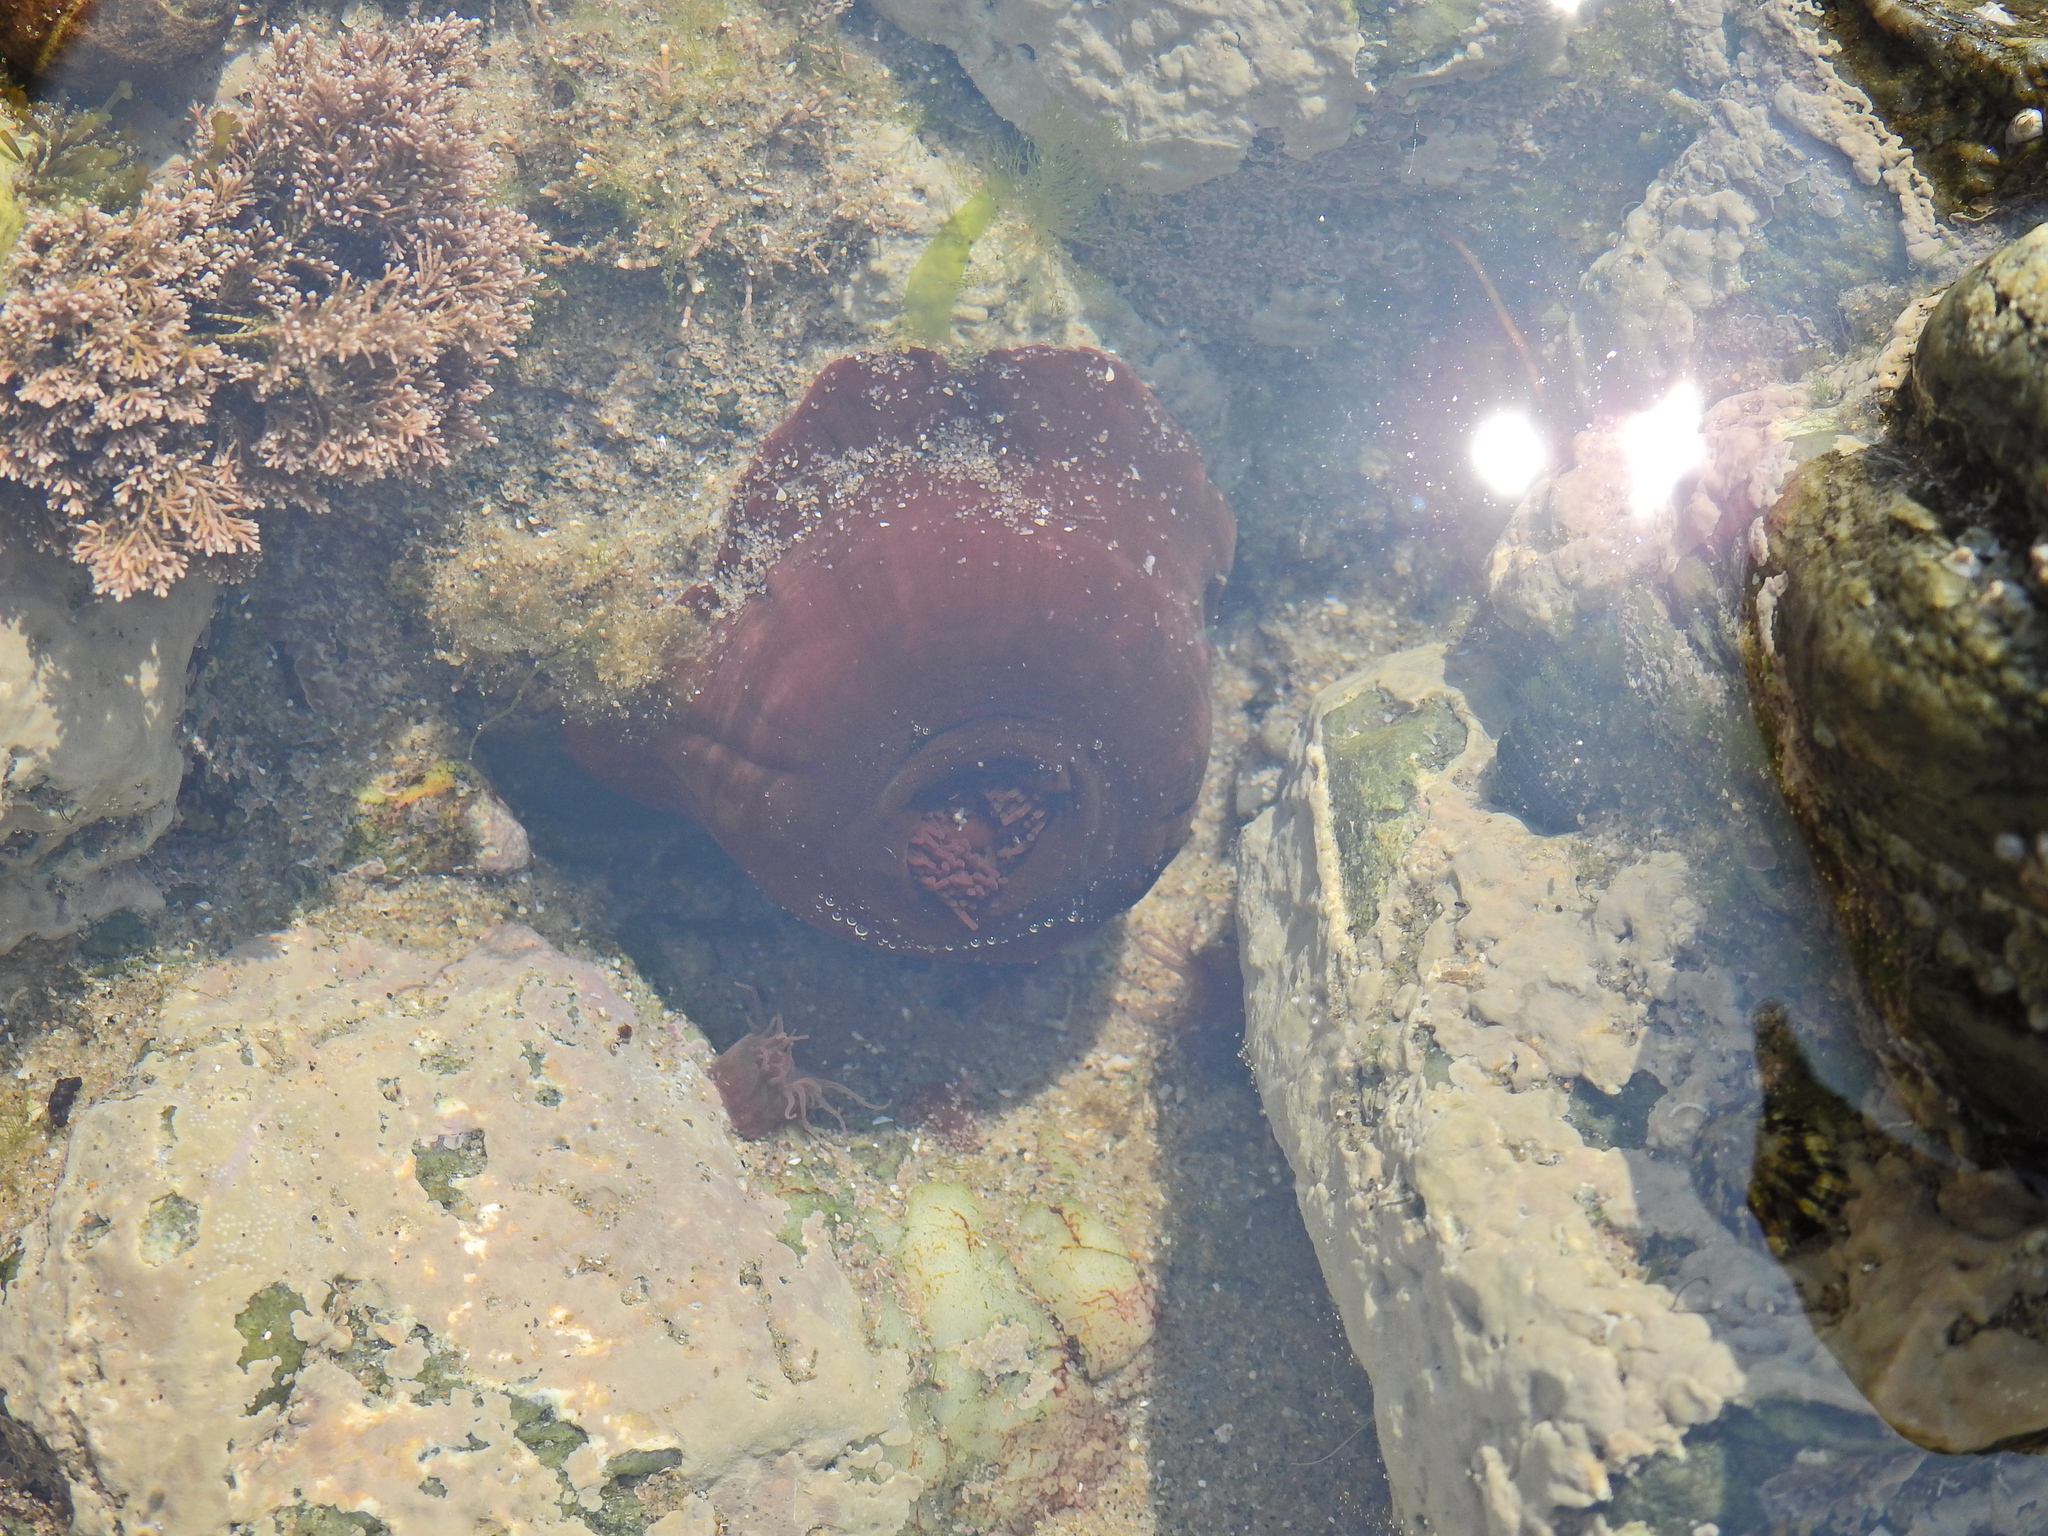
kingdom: Animalia
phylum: Cnidaria
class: Anthozoa
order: Actiniaria
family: Actiniidae
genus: Actinia
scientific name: Actinia equina
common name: Beadlet anemone
